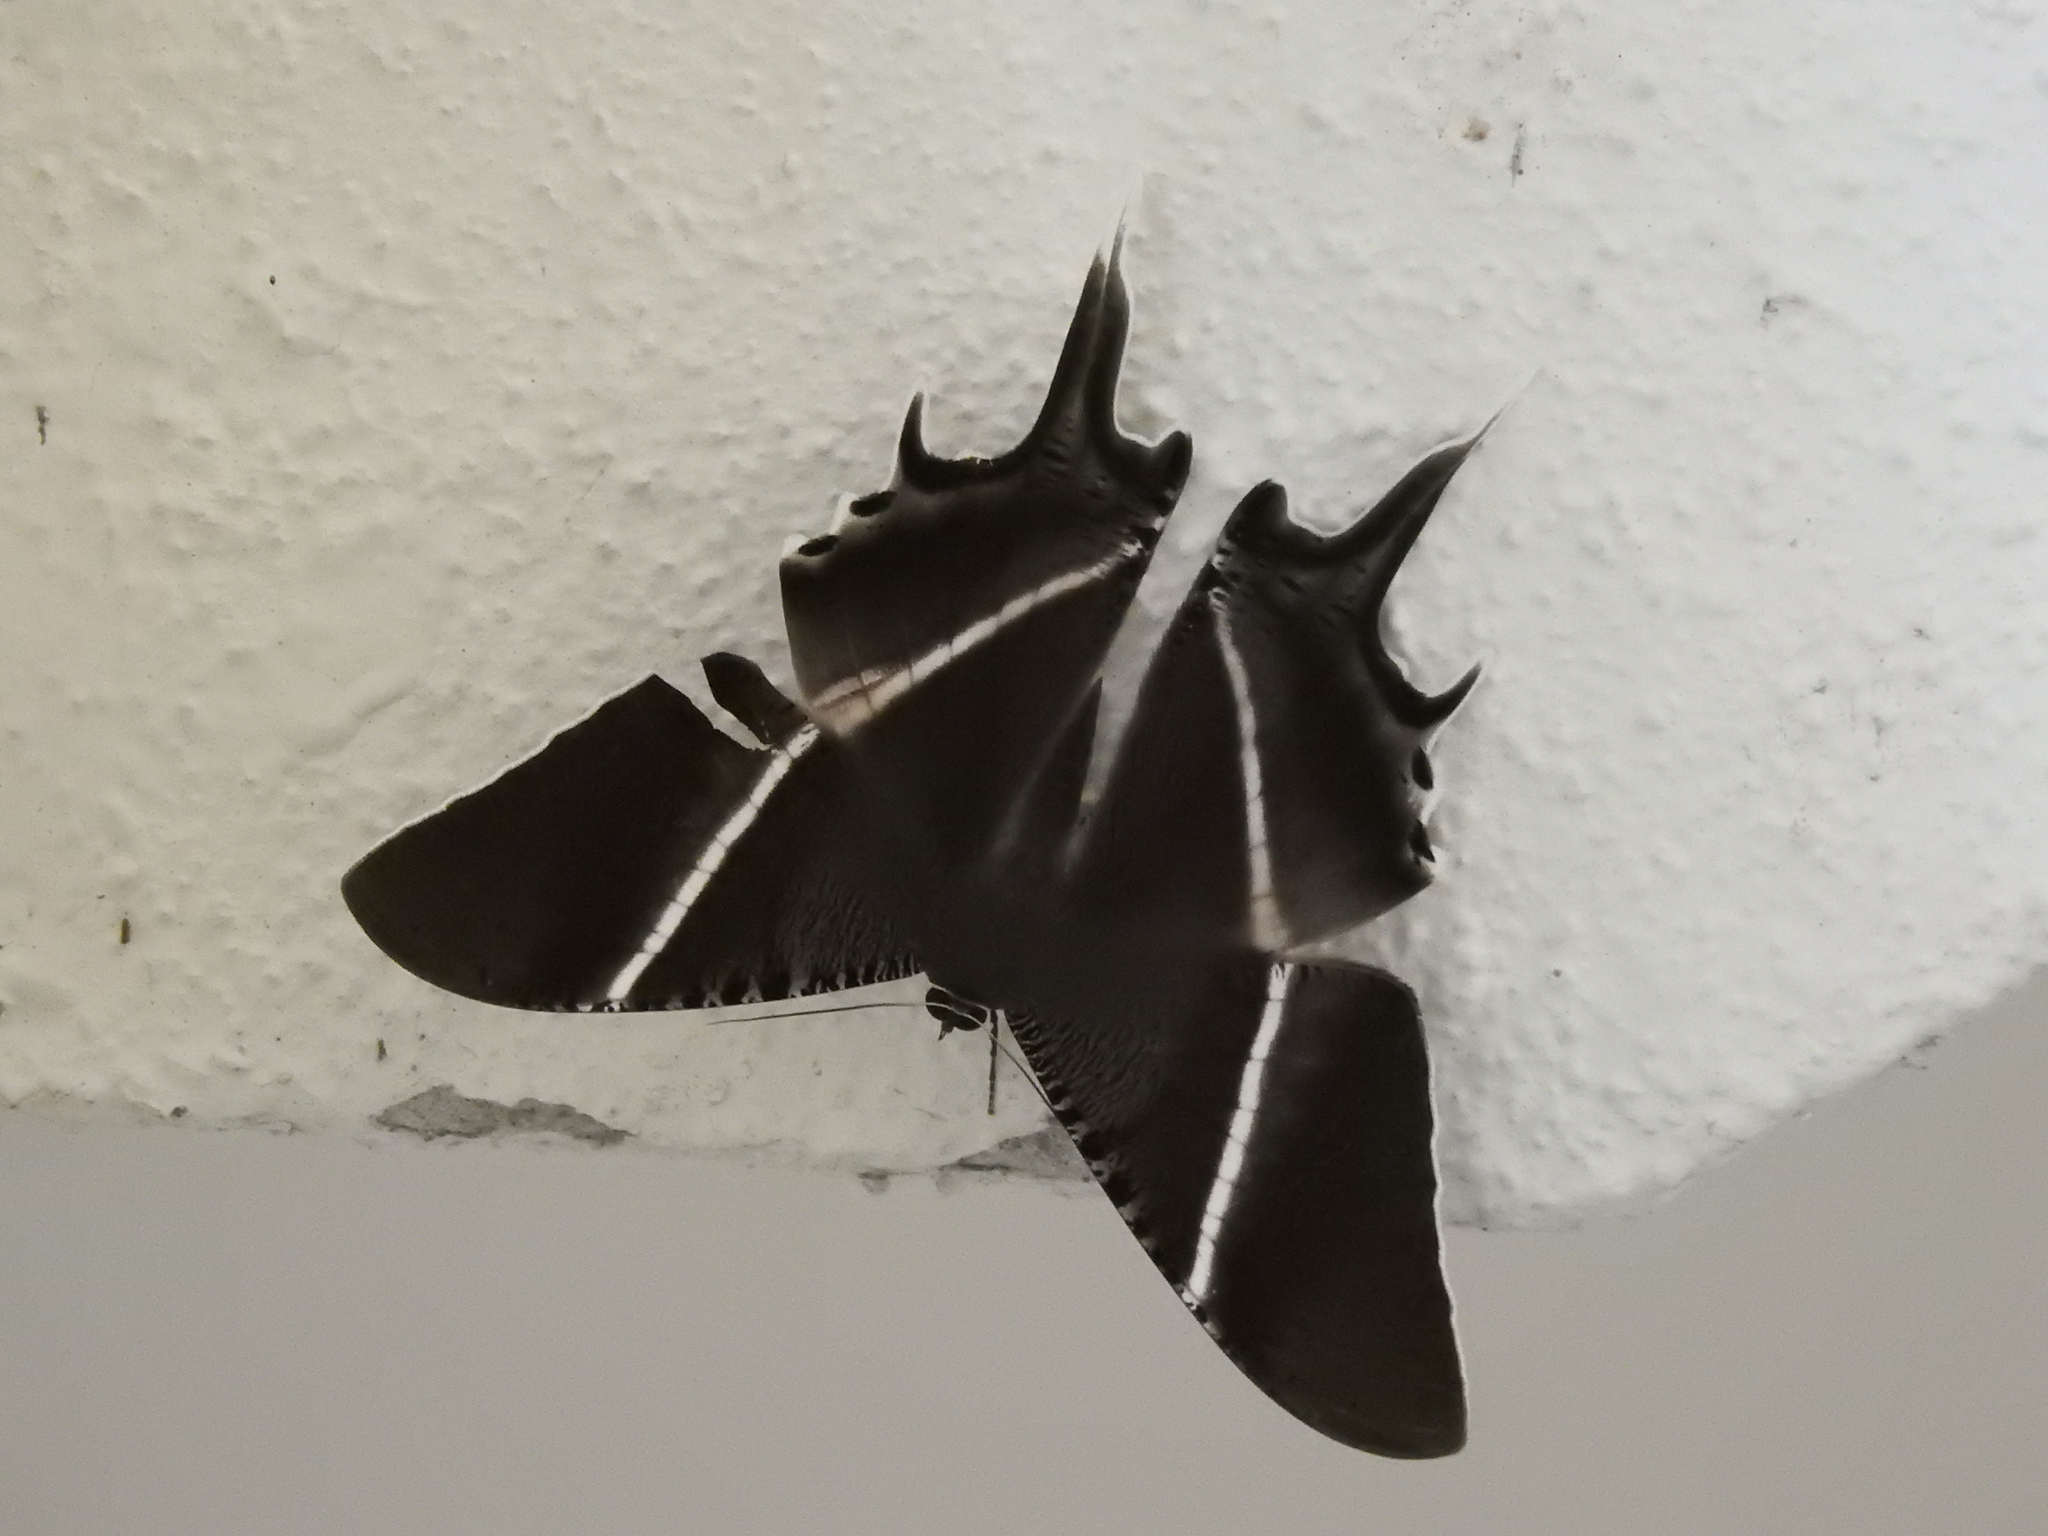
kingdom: Animalia
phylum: Arthropoda
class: Insecta
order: Lepidoptera
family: Uraniidae
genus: Lyssa
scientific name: Lyssa zampa
